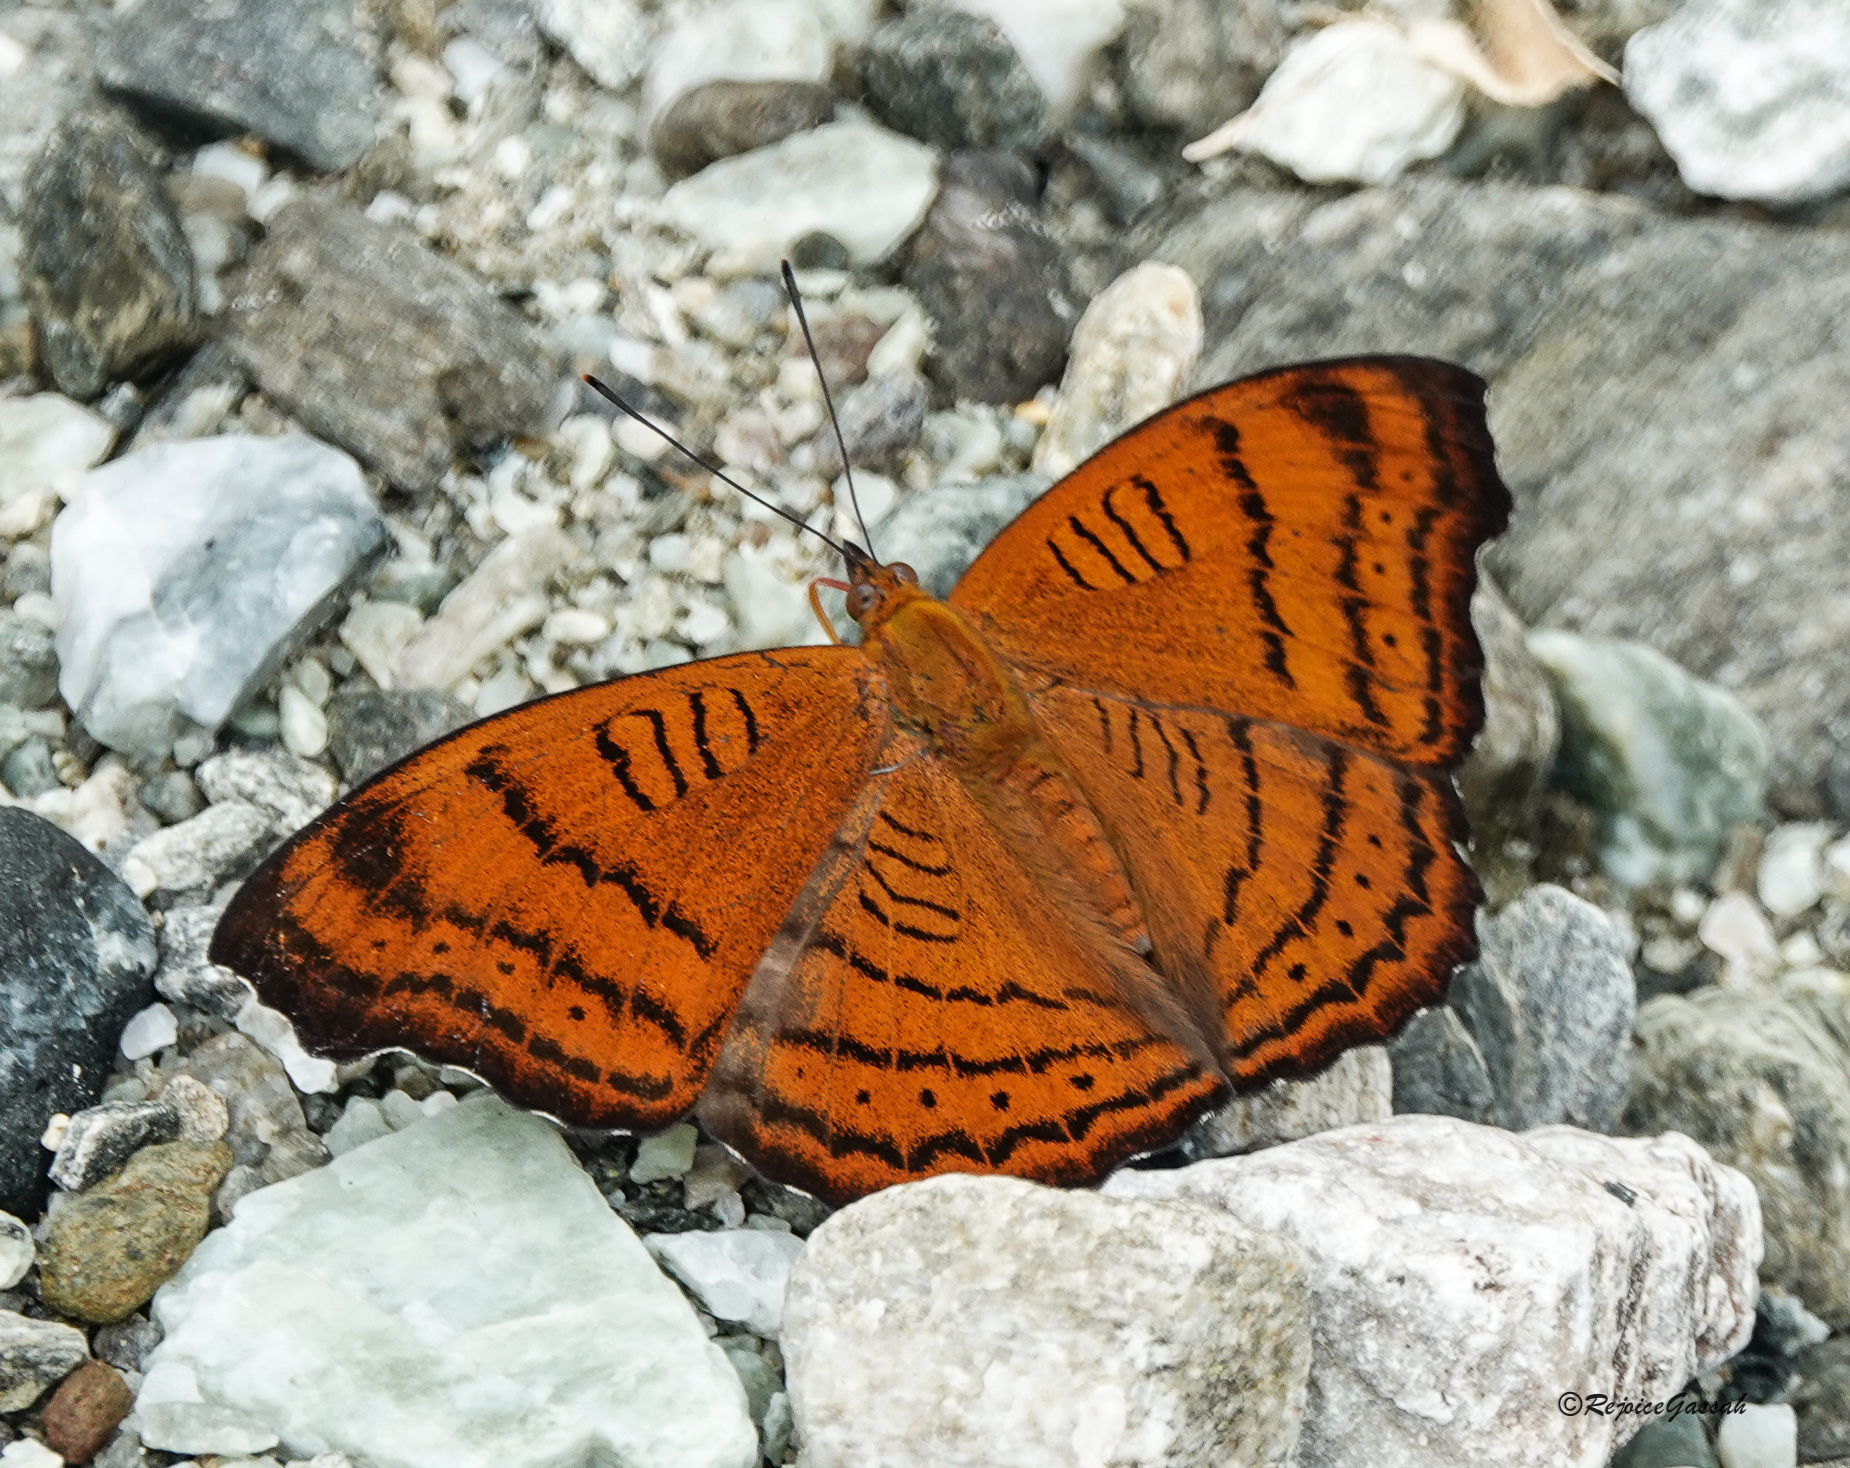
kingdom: Animalia
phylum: Arthropoda
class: Insecta
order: Lepidoptera
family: Nymphalidae
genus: Pseudergolis
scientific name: Pseudergolis wedah
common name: Tabby
